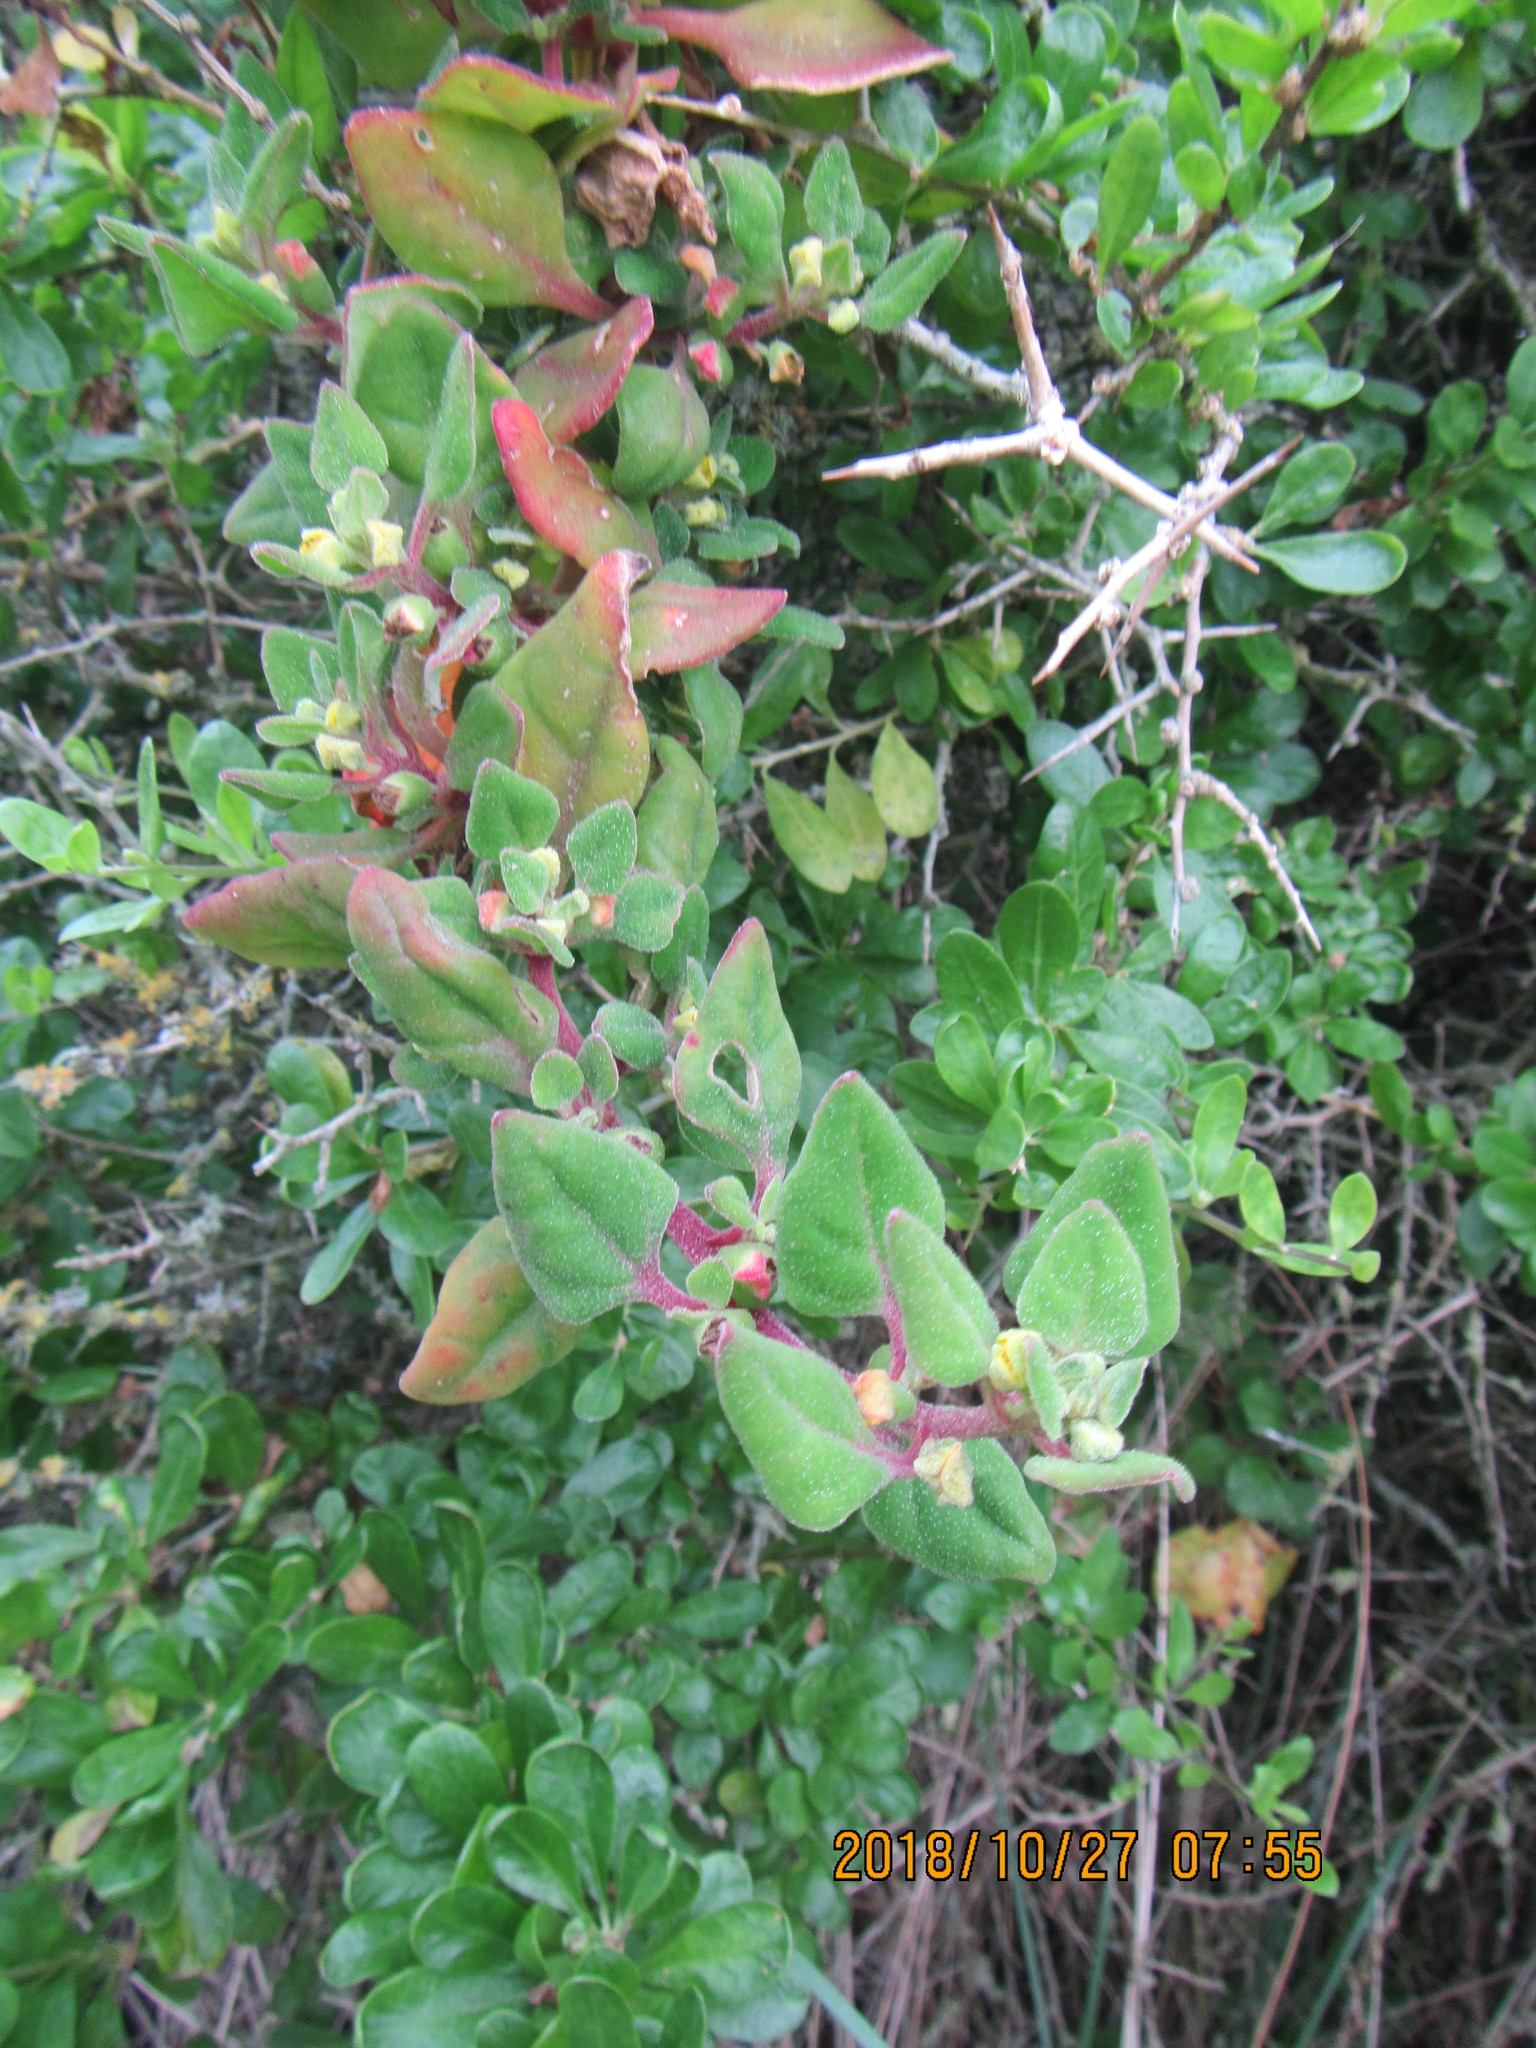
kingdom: Plantae
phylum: Tracheophyta
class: Magnoliopsida
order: Caryophyllales
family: Aizoaceae
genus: Tetragonia
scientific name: Tetragonia implexicoma
